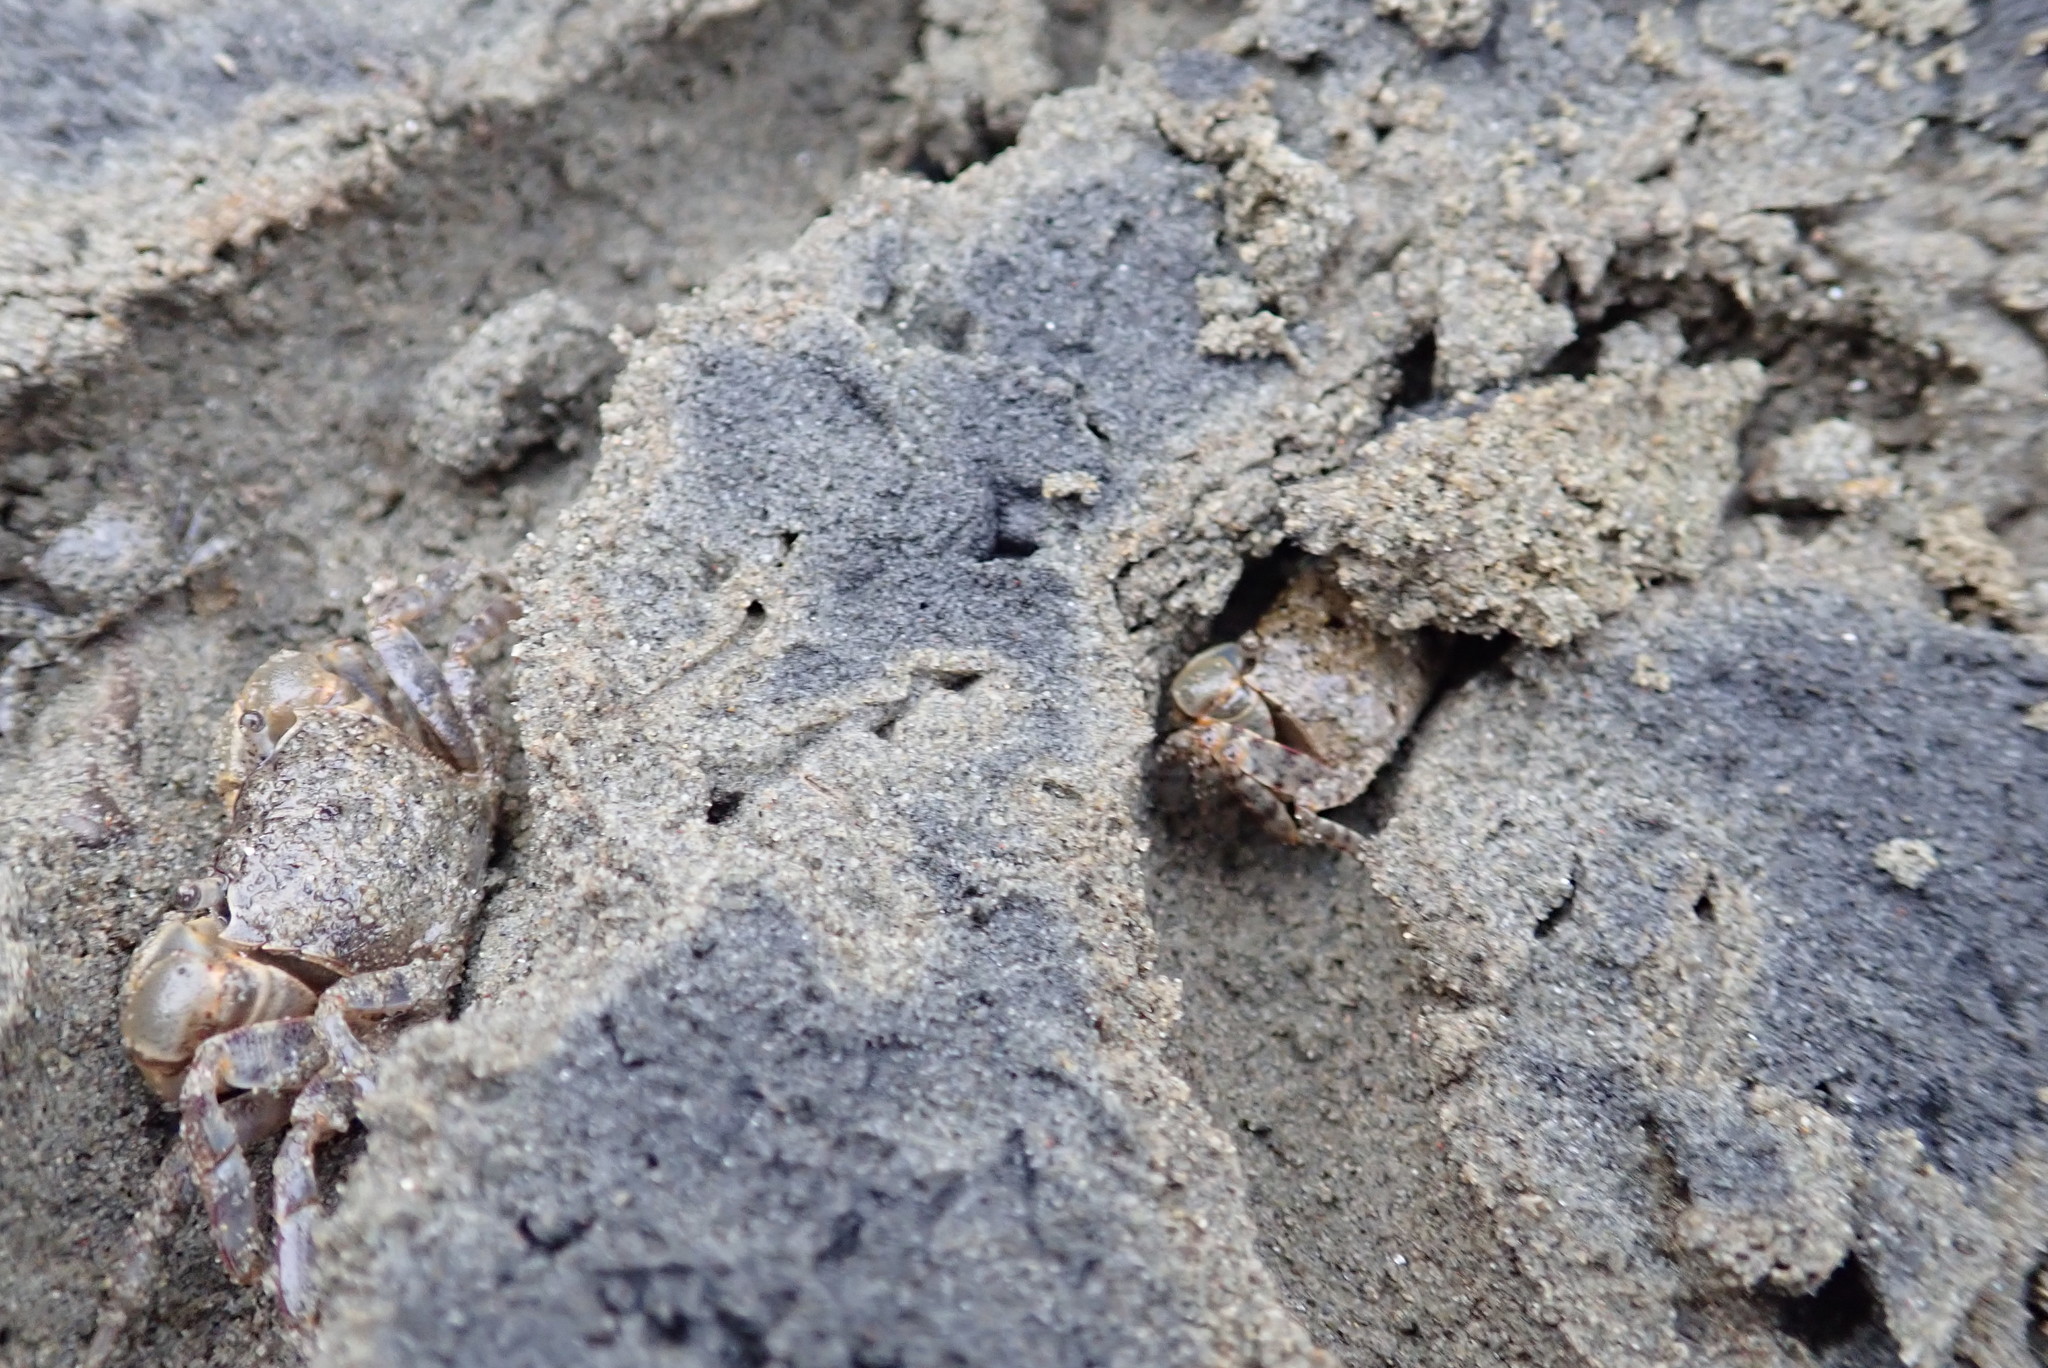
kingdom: Animalia
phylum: Arthropoda
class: Malacostraca
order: Decapoda
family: Varunidae
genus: Austrohelice
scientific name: Austrohelice crassa
